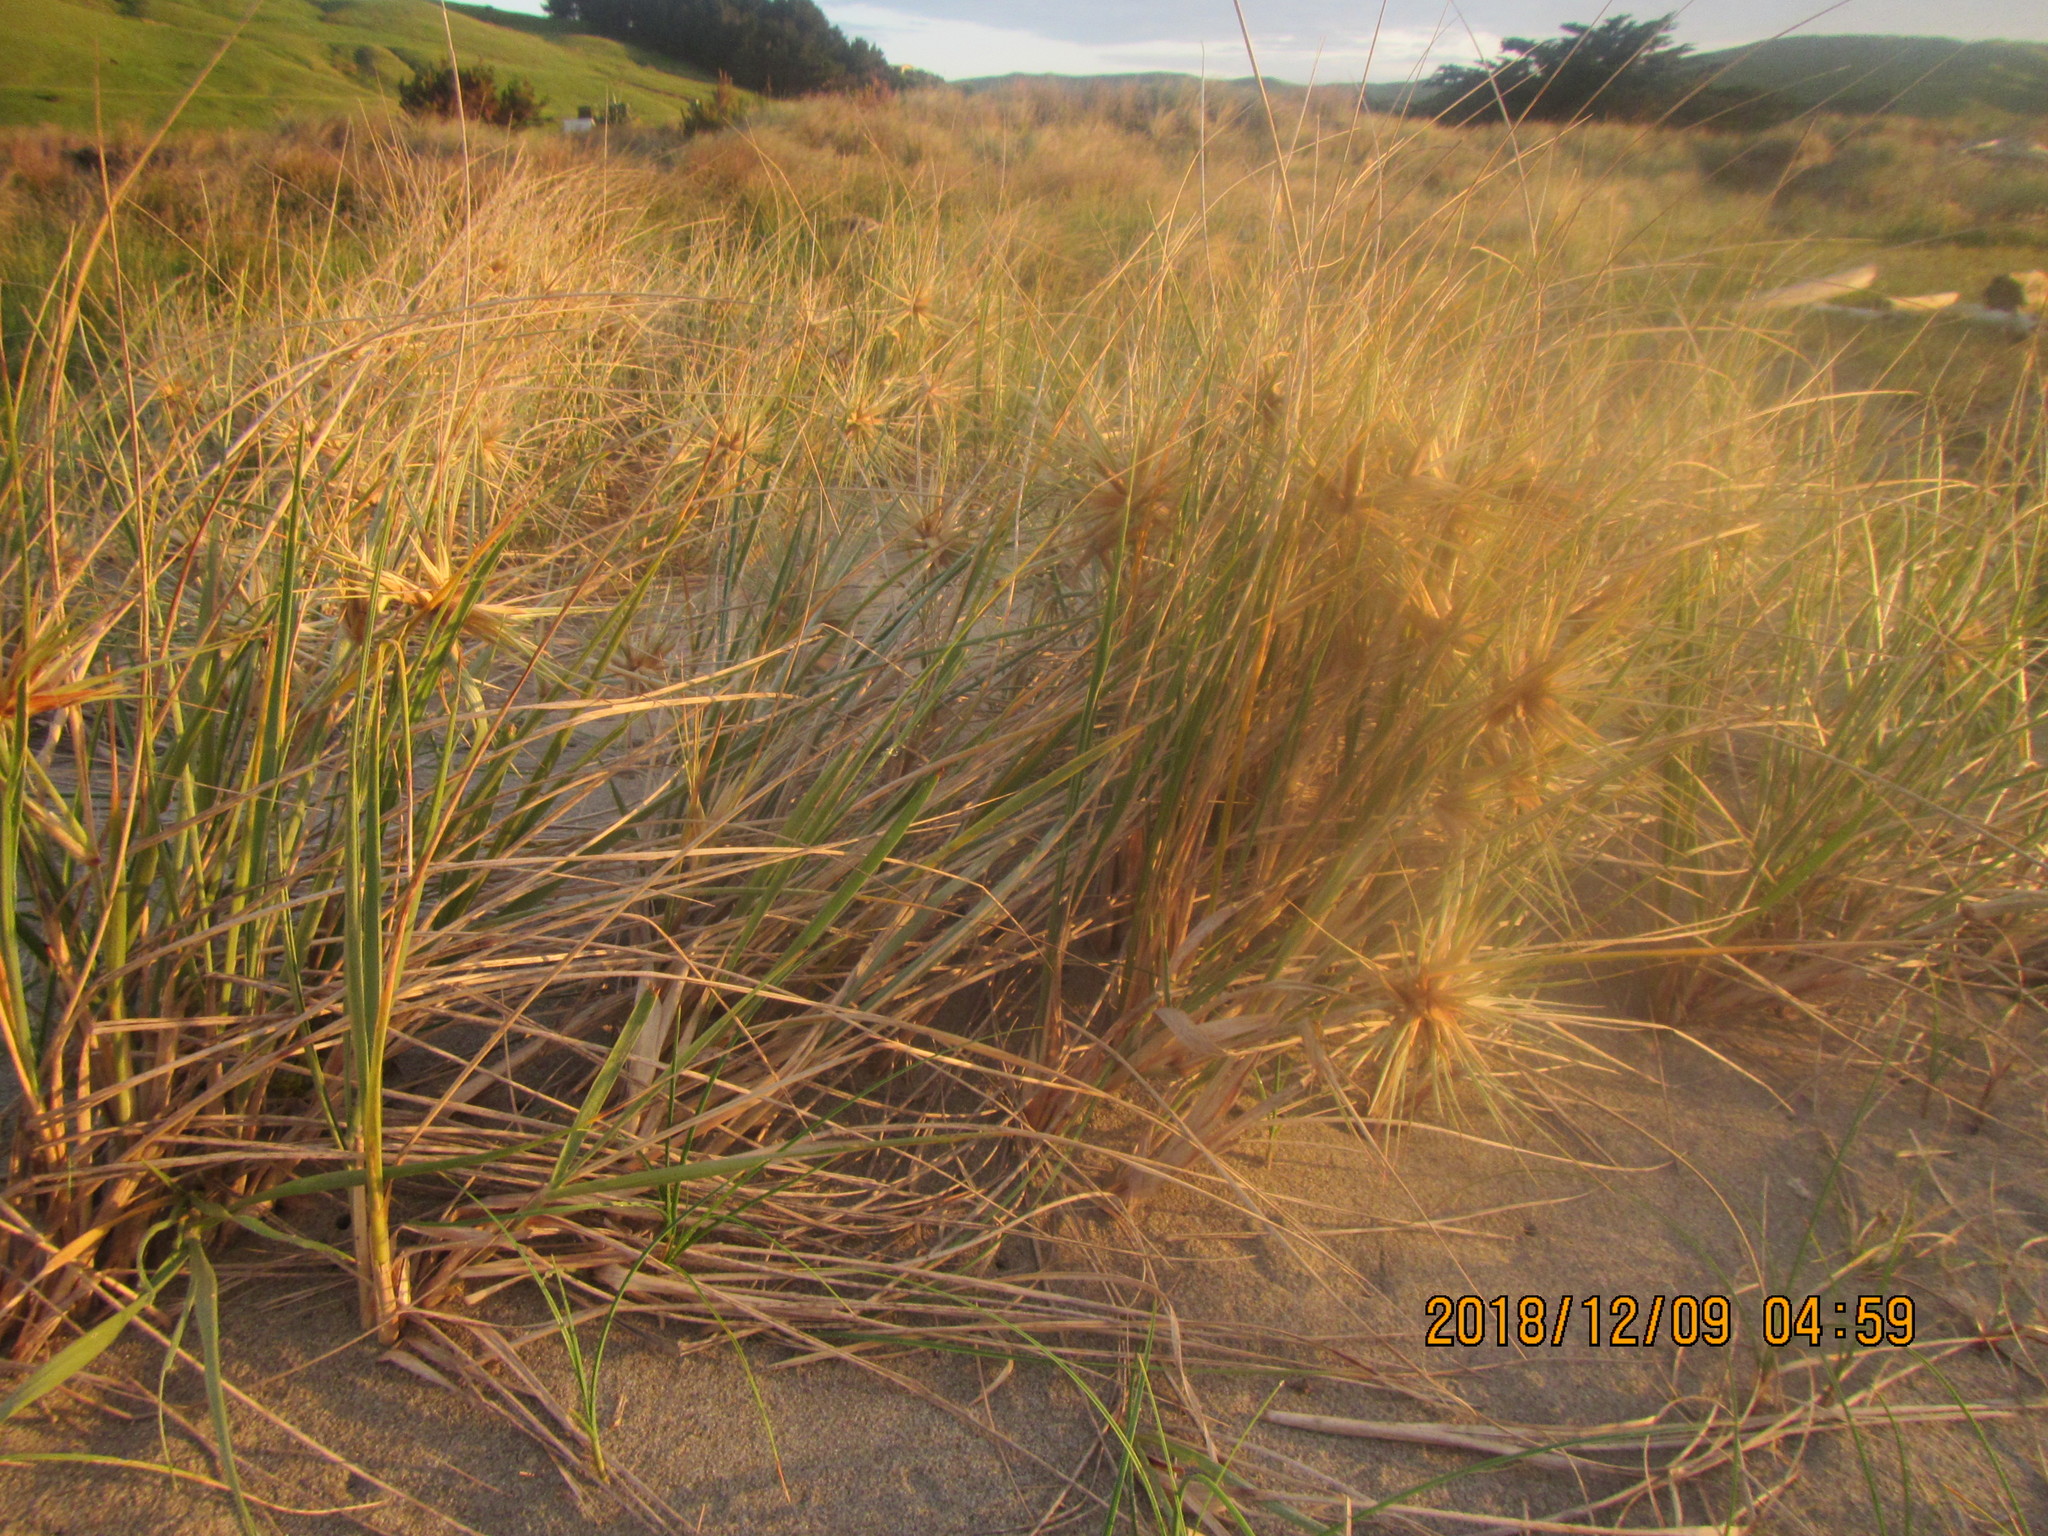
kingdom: Plantae
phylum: Tracheophyta
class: Liliopsida
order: Poales
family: Poaceae
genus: Spinifex
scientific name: Spinifex sericeus
